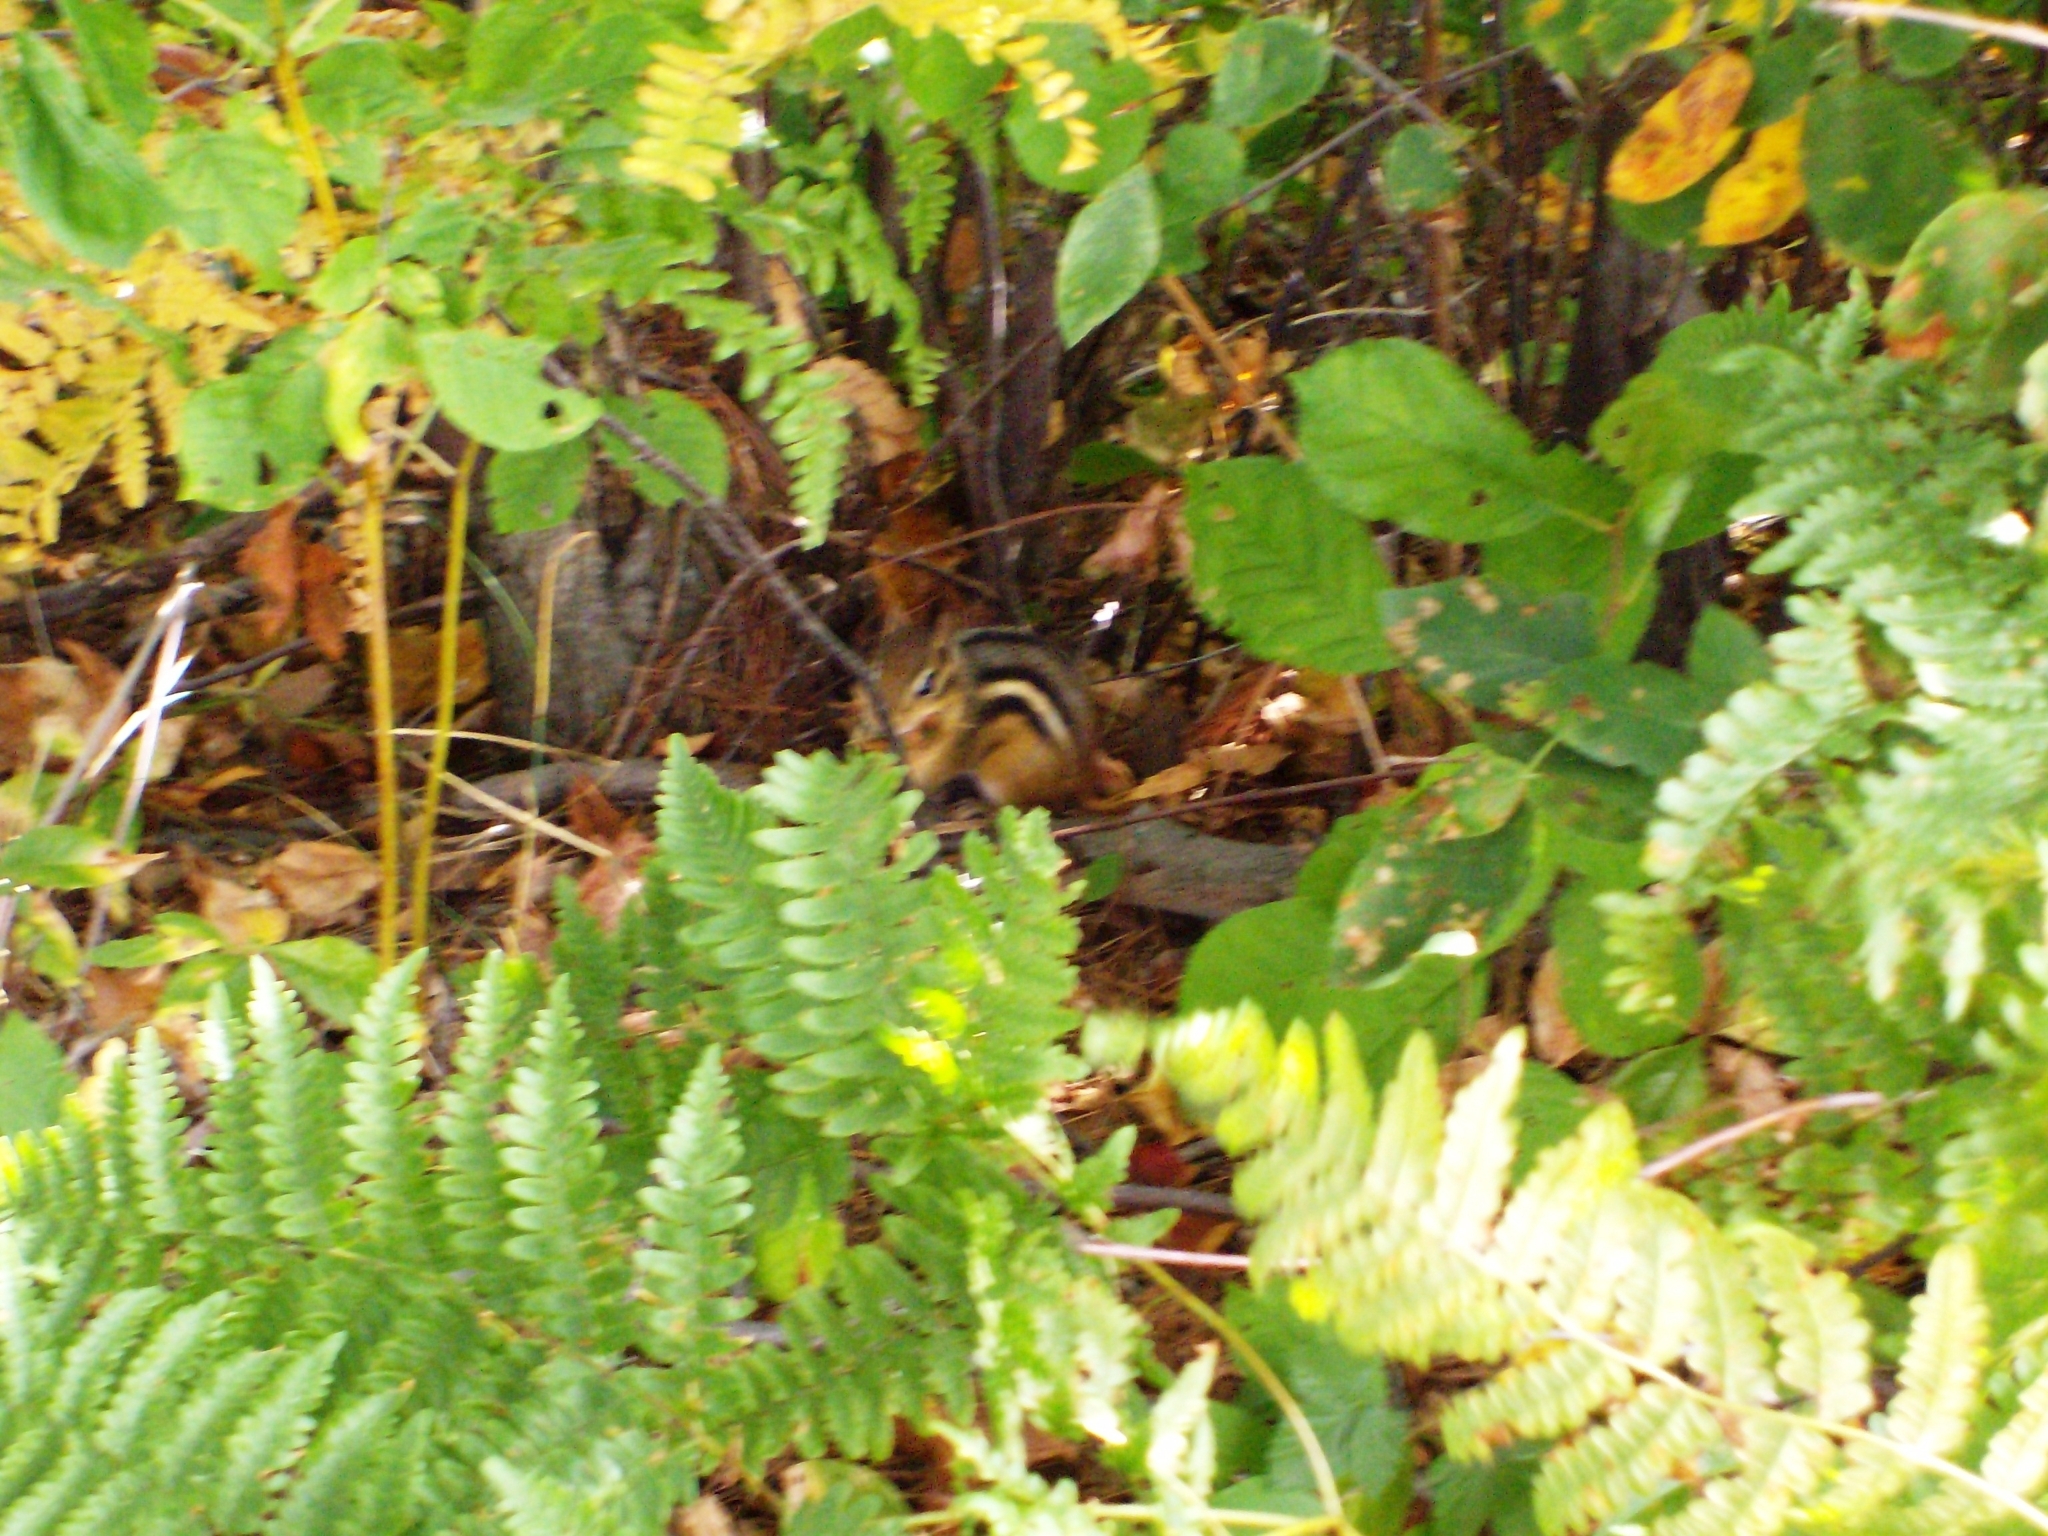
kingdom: Animalia
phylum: Chordata
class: Mammalia
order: Rodentia
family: Sciuridae
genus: Tamias
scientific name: Tamias striatus
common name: Eastern chipmunk
